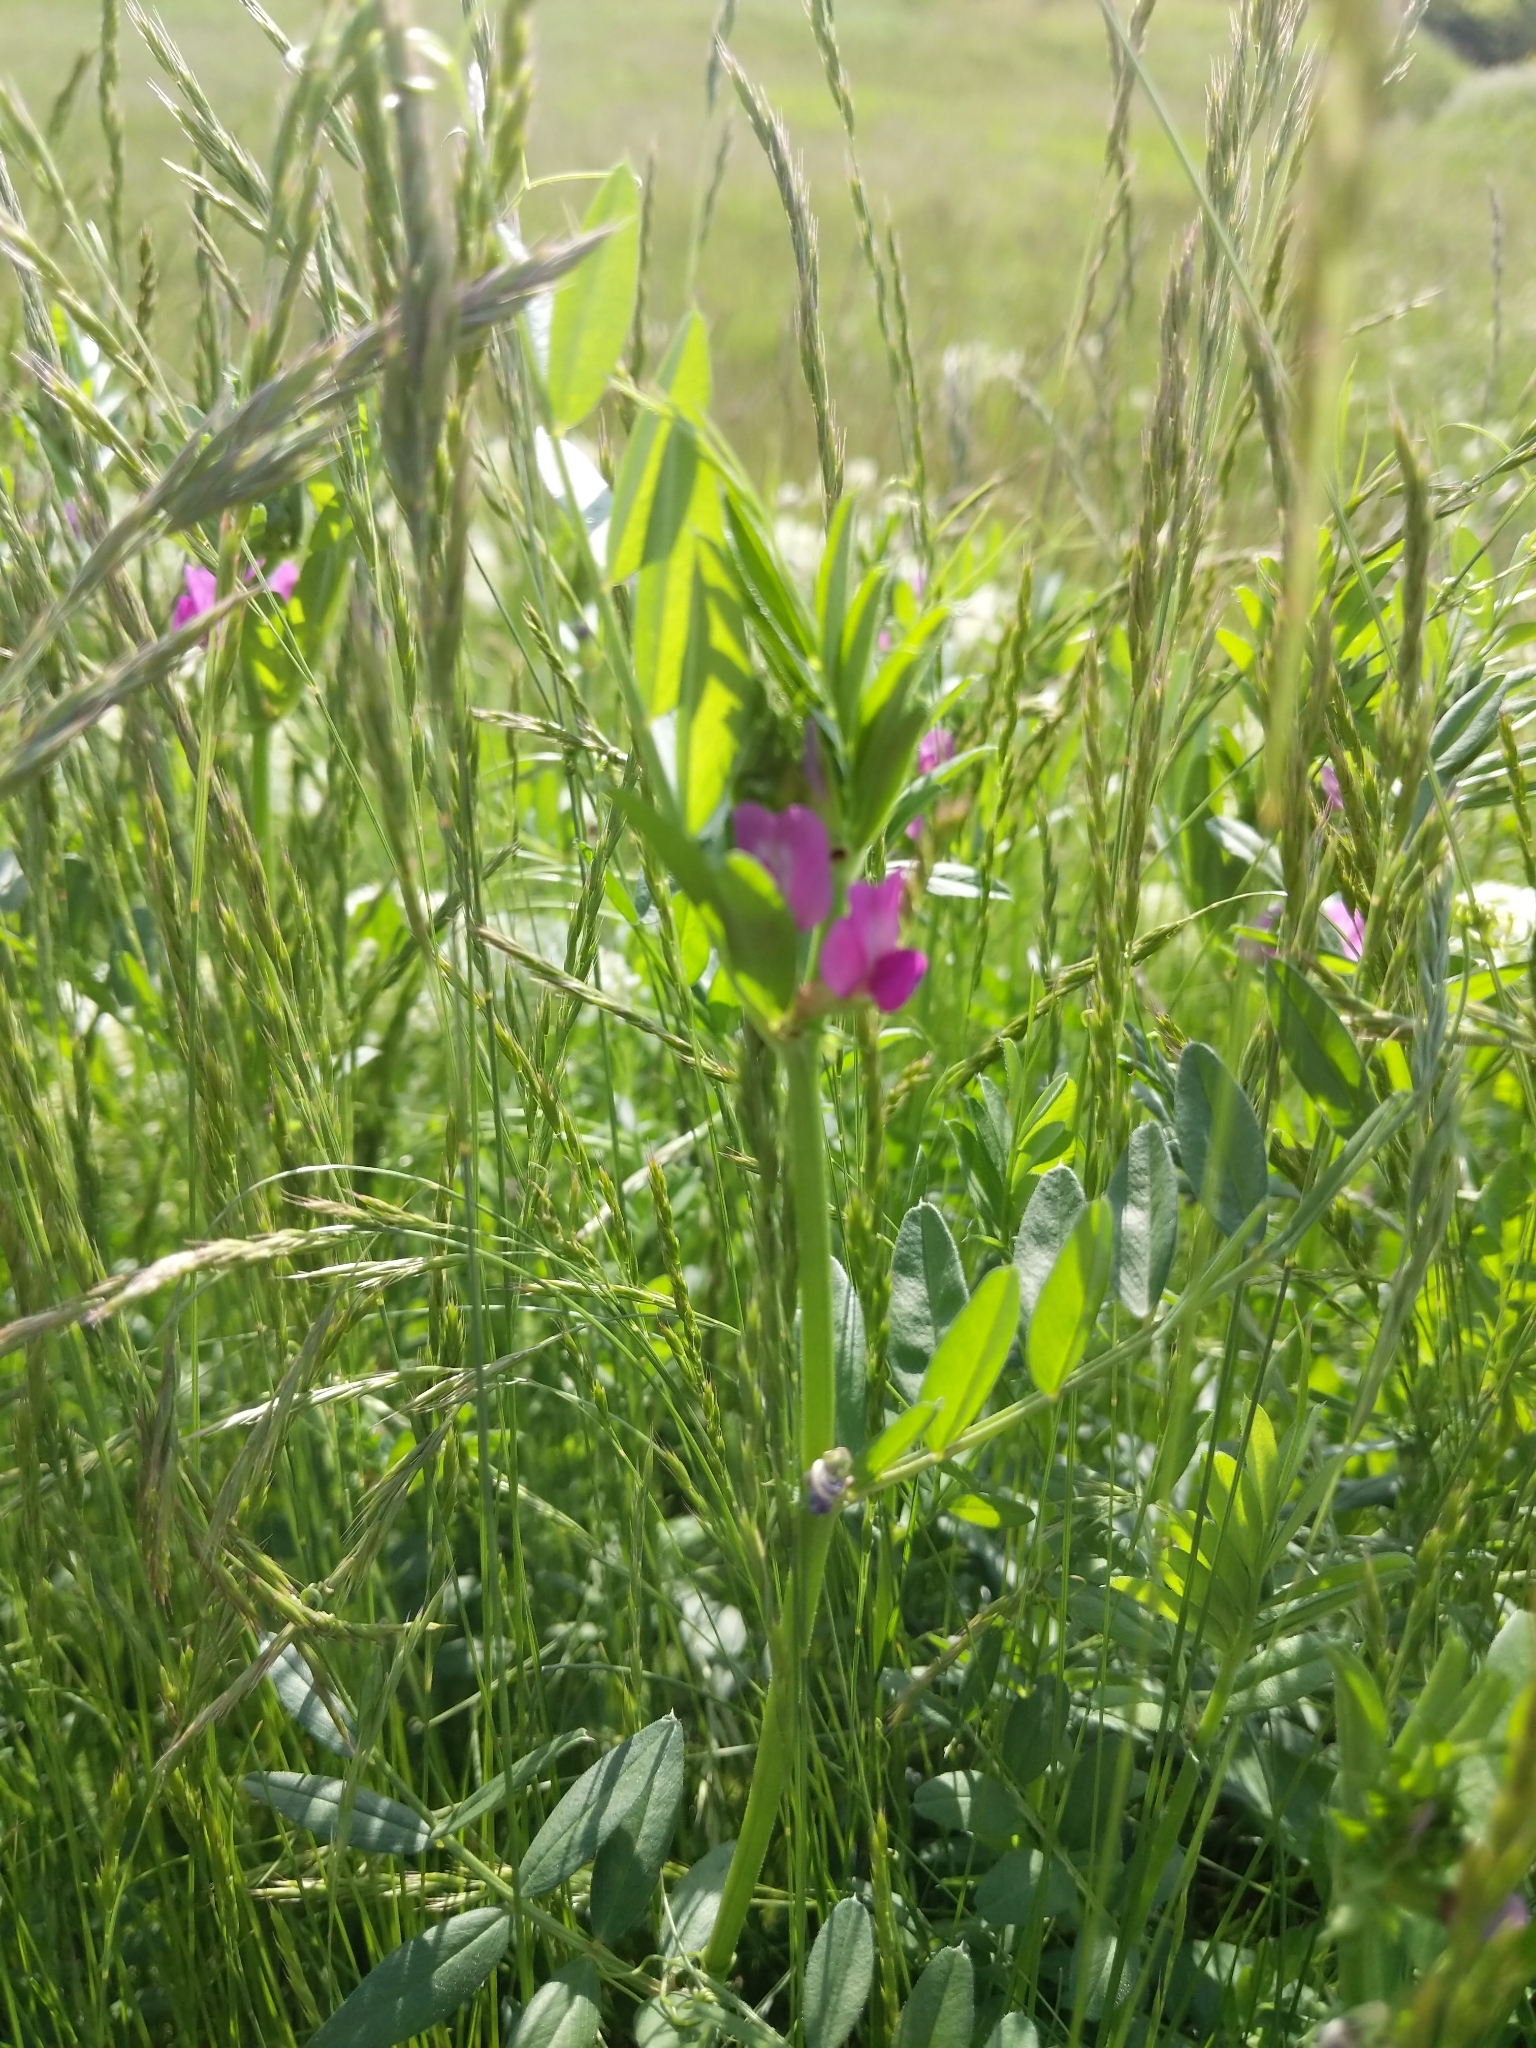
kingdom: Plantae
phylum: Tracheophyta
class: Magnoliopsida
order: Fabales
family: Fabaceae
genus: Vicia
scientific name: Vicia sativa
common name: Garden vetch
